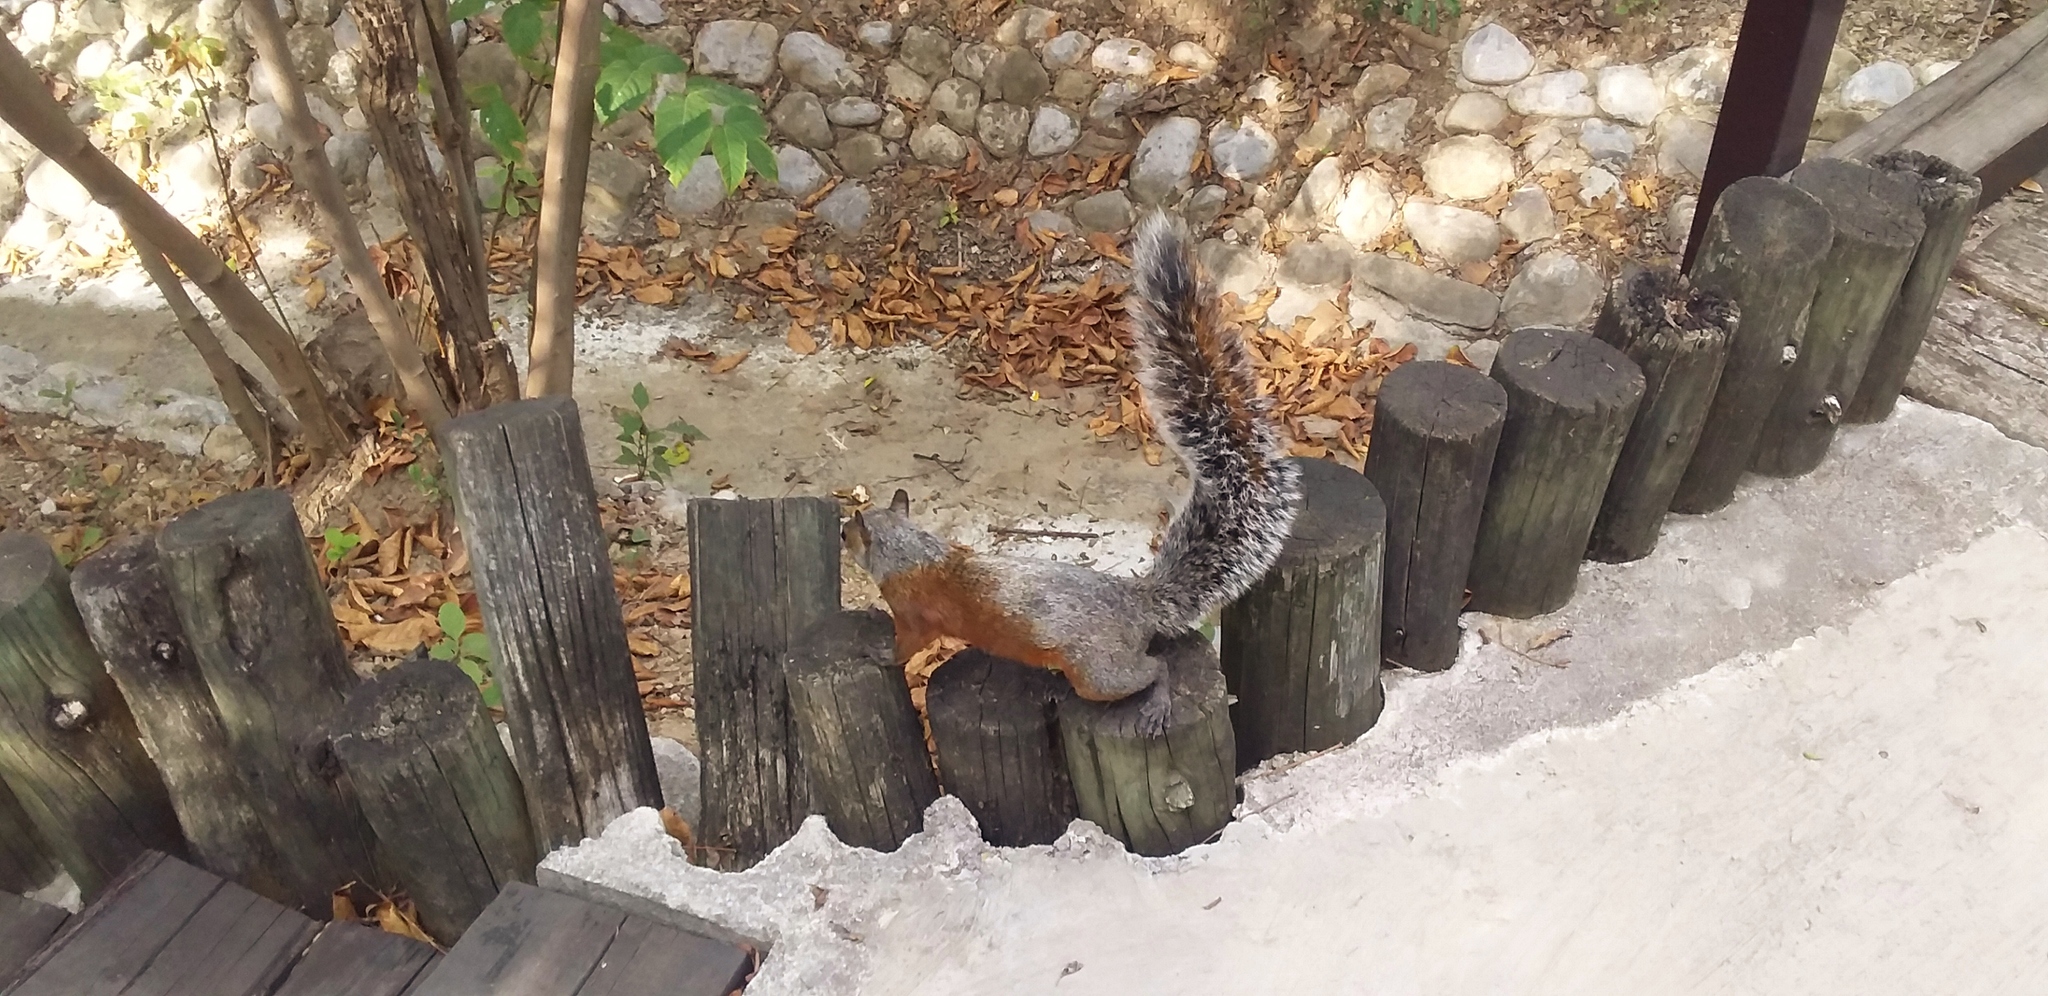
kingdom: Animalia
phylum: Chordata
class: Mammalia
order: Rodentia
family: Sciuridae
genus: Sciurus
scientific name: Sciurus aureogaster
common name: Red-bellied squirrel
